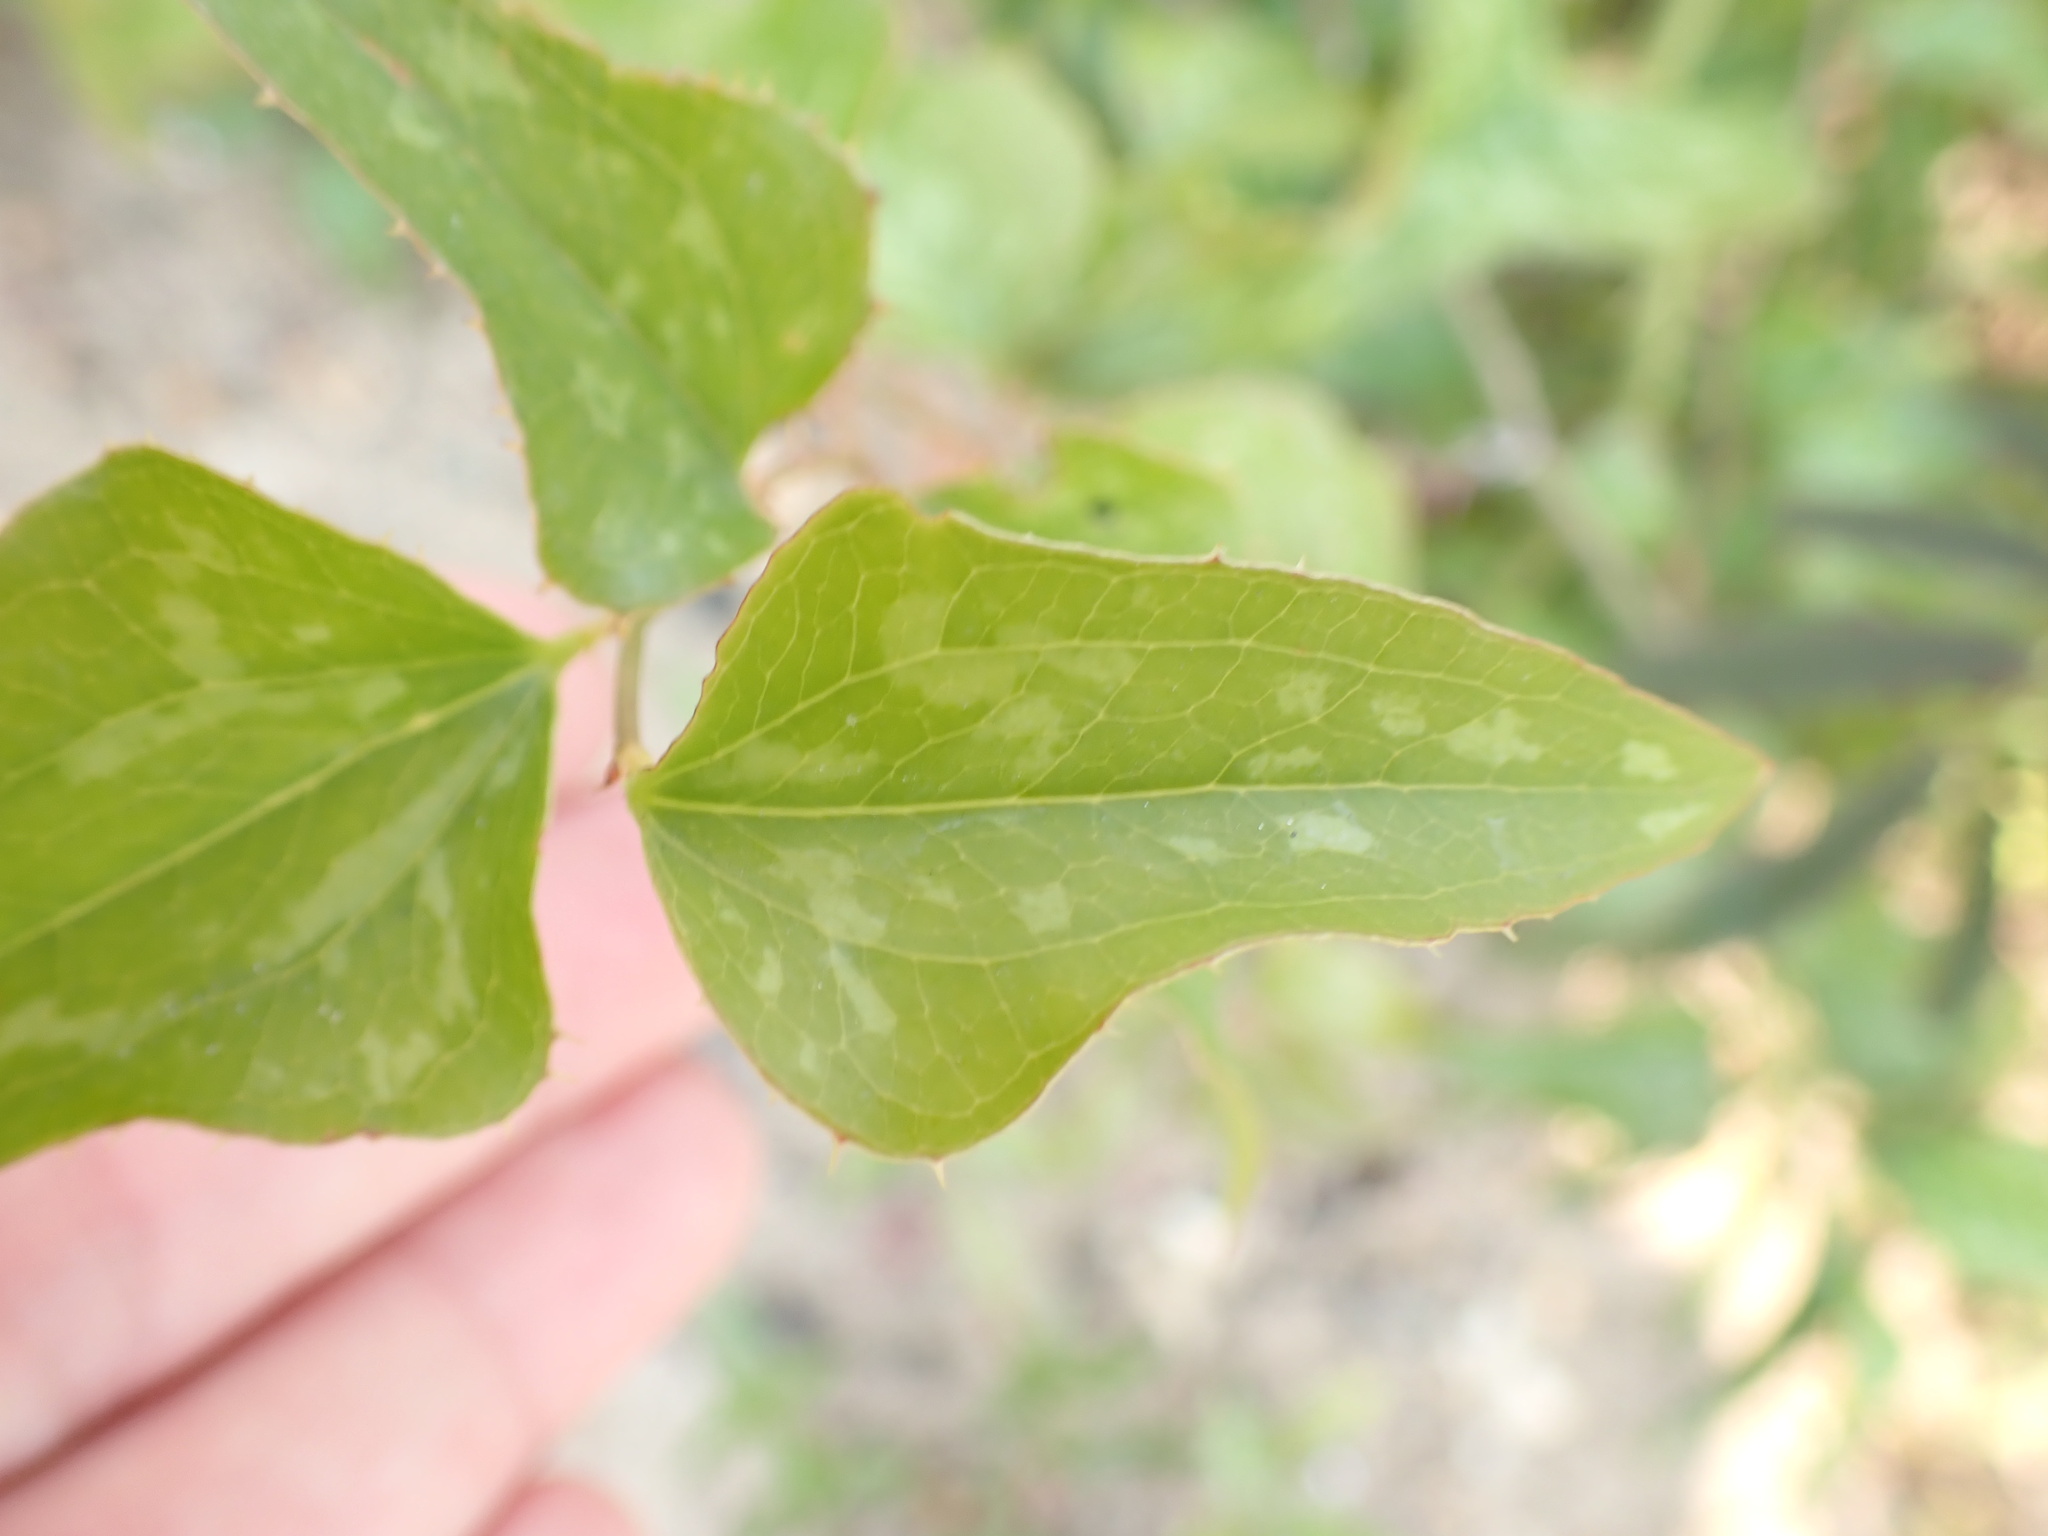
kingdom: Plantae
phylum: Tracheophyta
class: Liliopsida
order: Liliales
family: Smilacaceae
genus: Smilax
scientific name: Smilax bona-nox
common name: Catbrier
